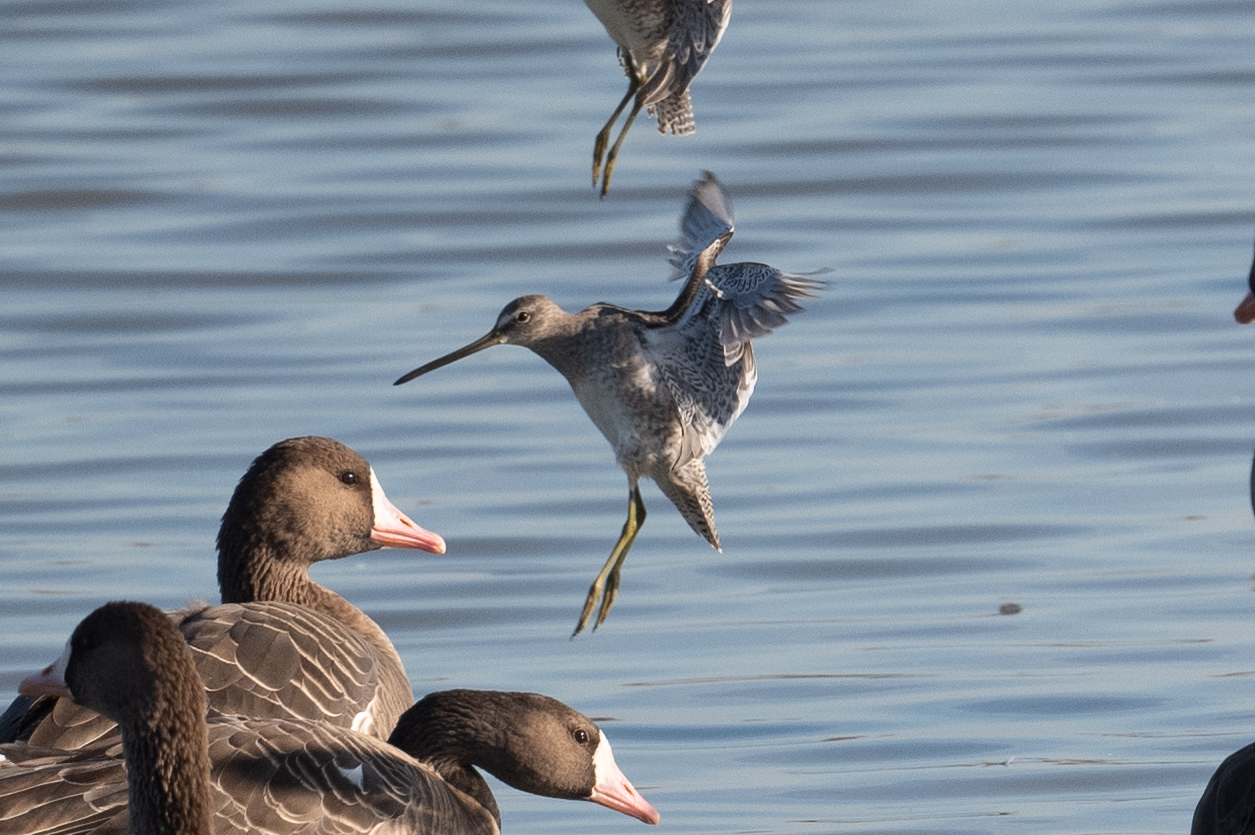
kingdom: Animalia
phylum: Chordata
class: Aves
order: Charadriiformes
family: Scolopacidae
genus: Limnodromus
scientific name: Limnodromus scolopaceus
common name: Long-billed dowitcher
